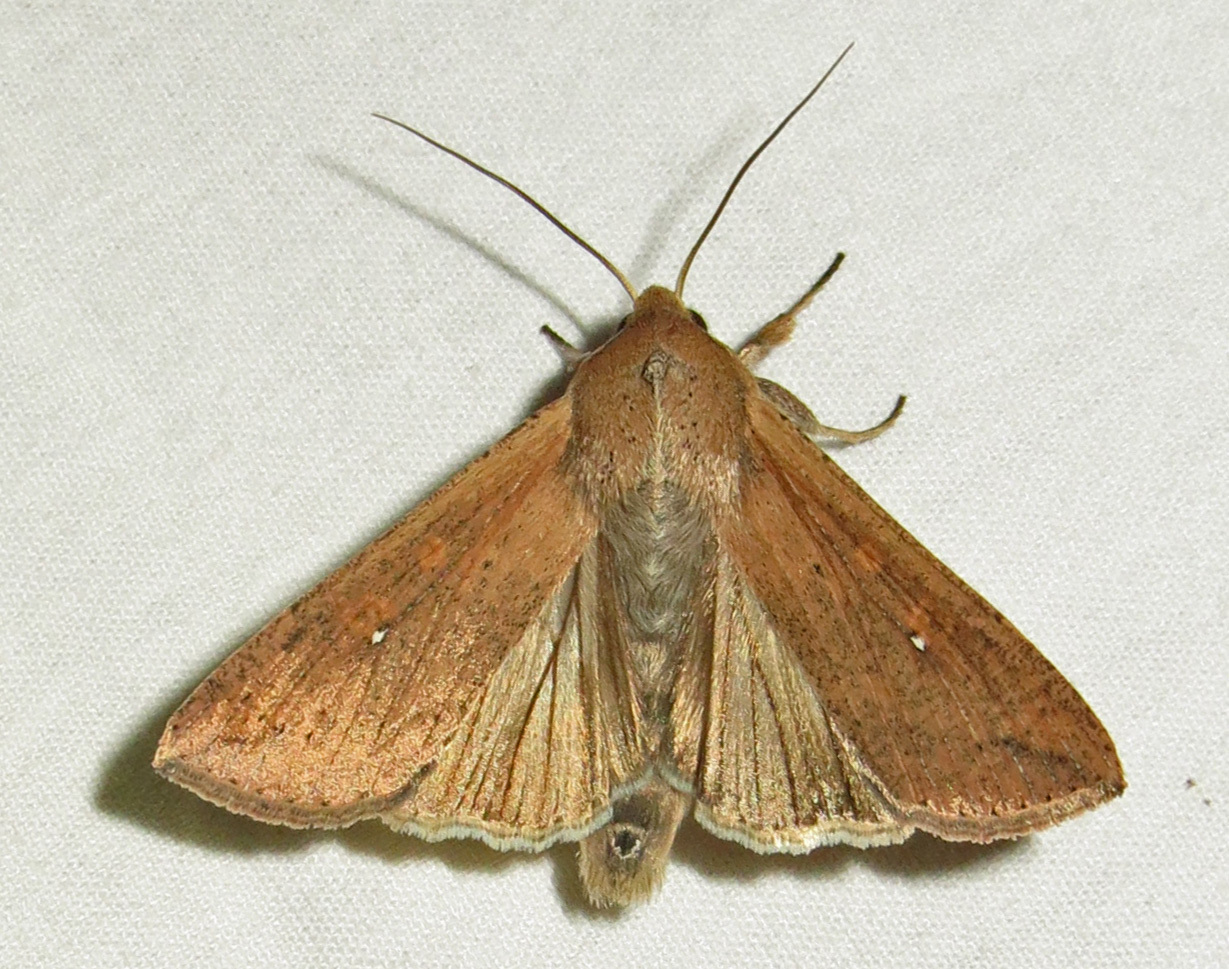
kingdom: Animalia
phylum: Arthropoda
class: Insecta
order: Lepidoptera
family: Noctuidae
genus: Mythimna
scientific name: Mythimna unipuncta
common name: White-speck
